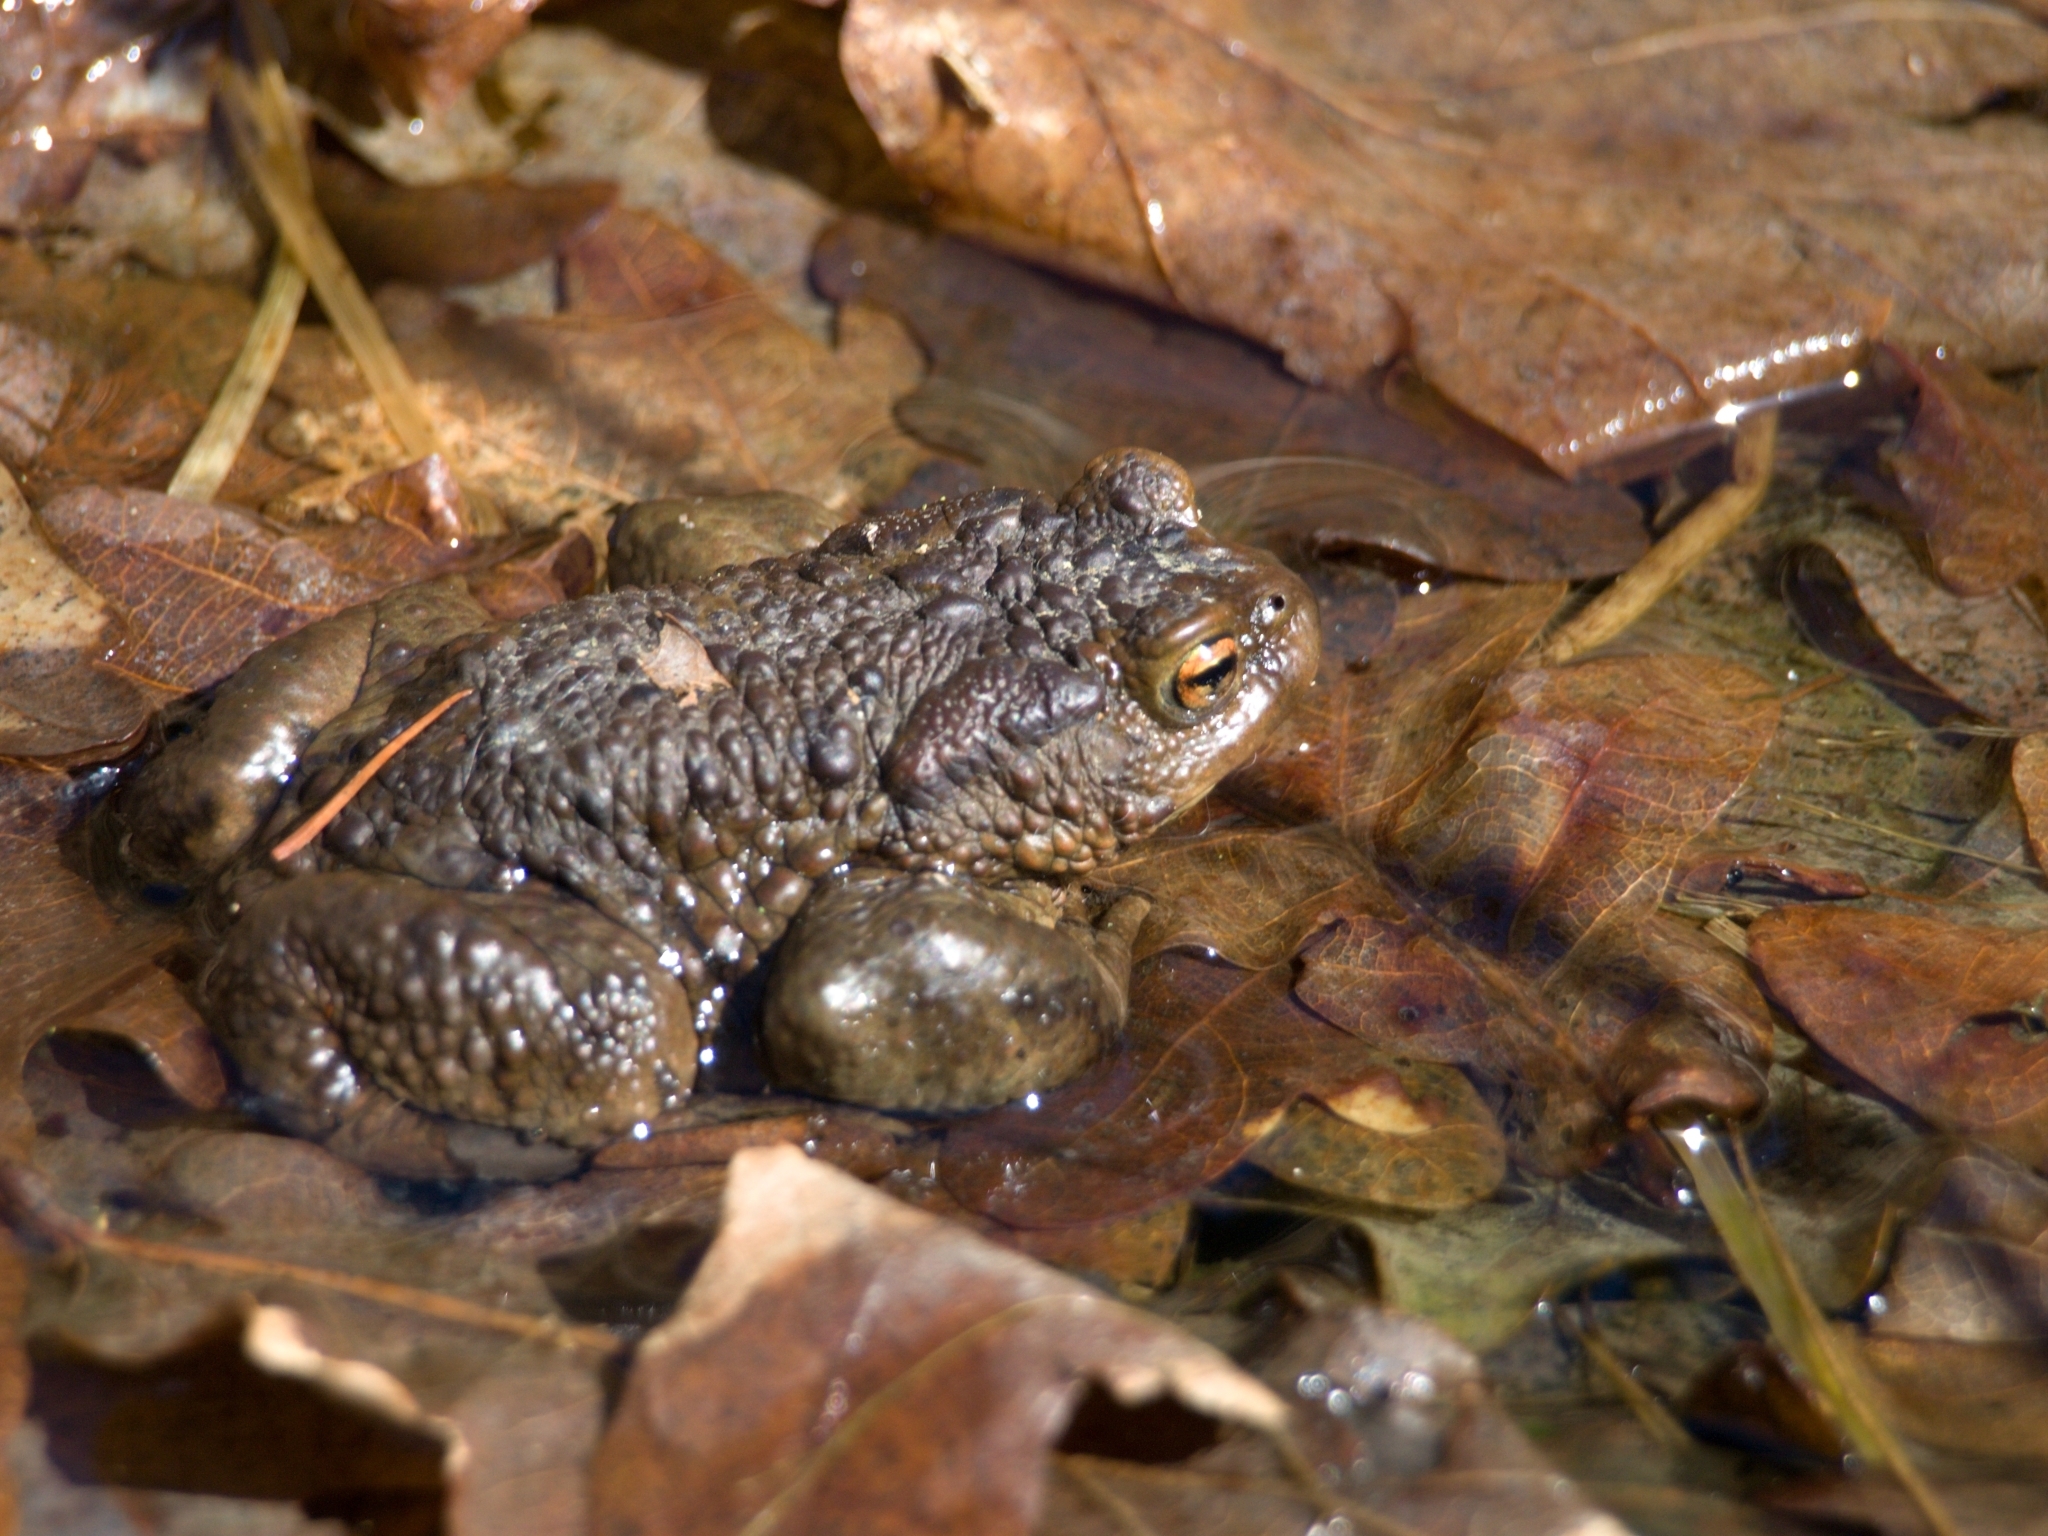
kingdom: Animalia
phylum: Chordata
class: Amphibia
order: Anura
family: Bufonidae
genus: Bufo
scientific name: Bufo bufo
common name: Common toad
